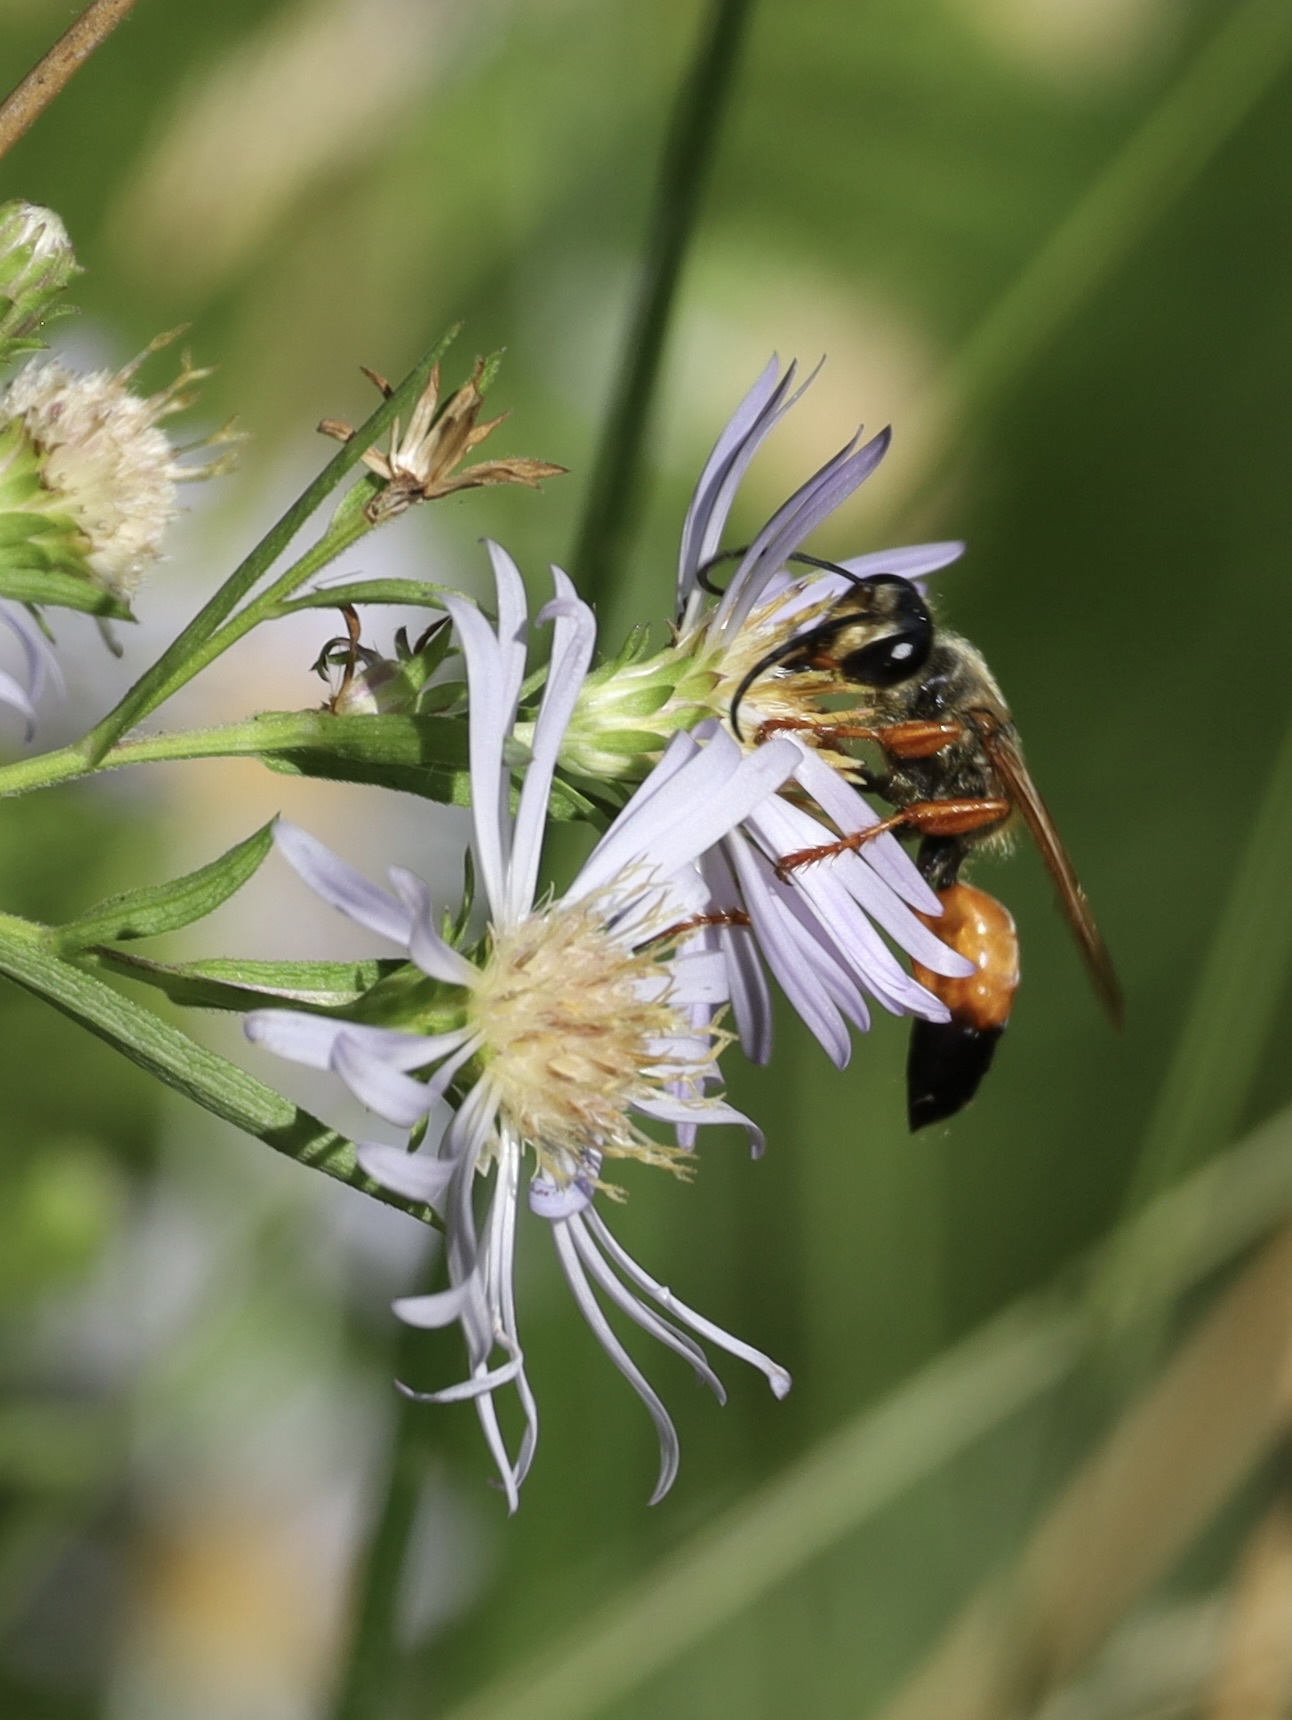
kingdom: Animalia
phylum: Arthropoda
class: Insecta
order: Hymenoptera
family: Sphecidae
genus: Sphex
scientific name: Sphex ichneumoneus
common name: Great golden digger wasp
